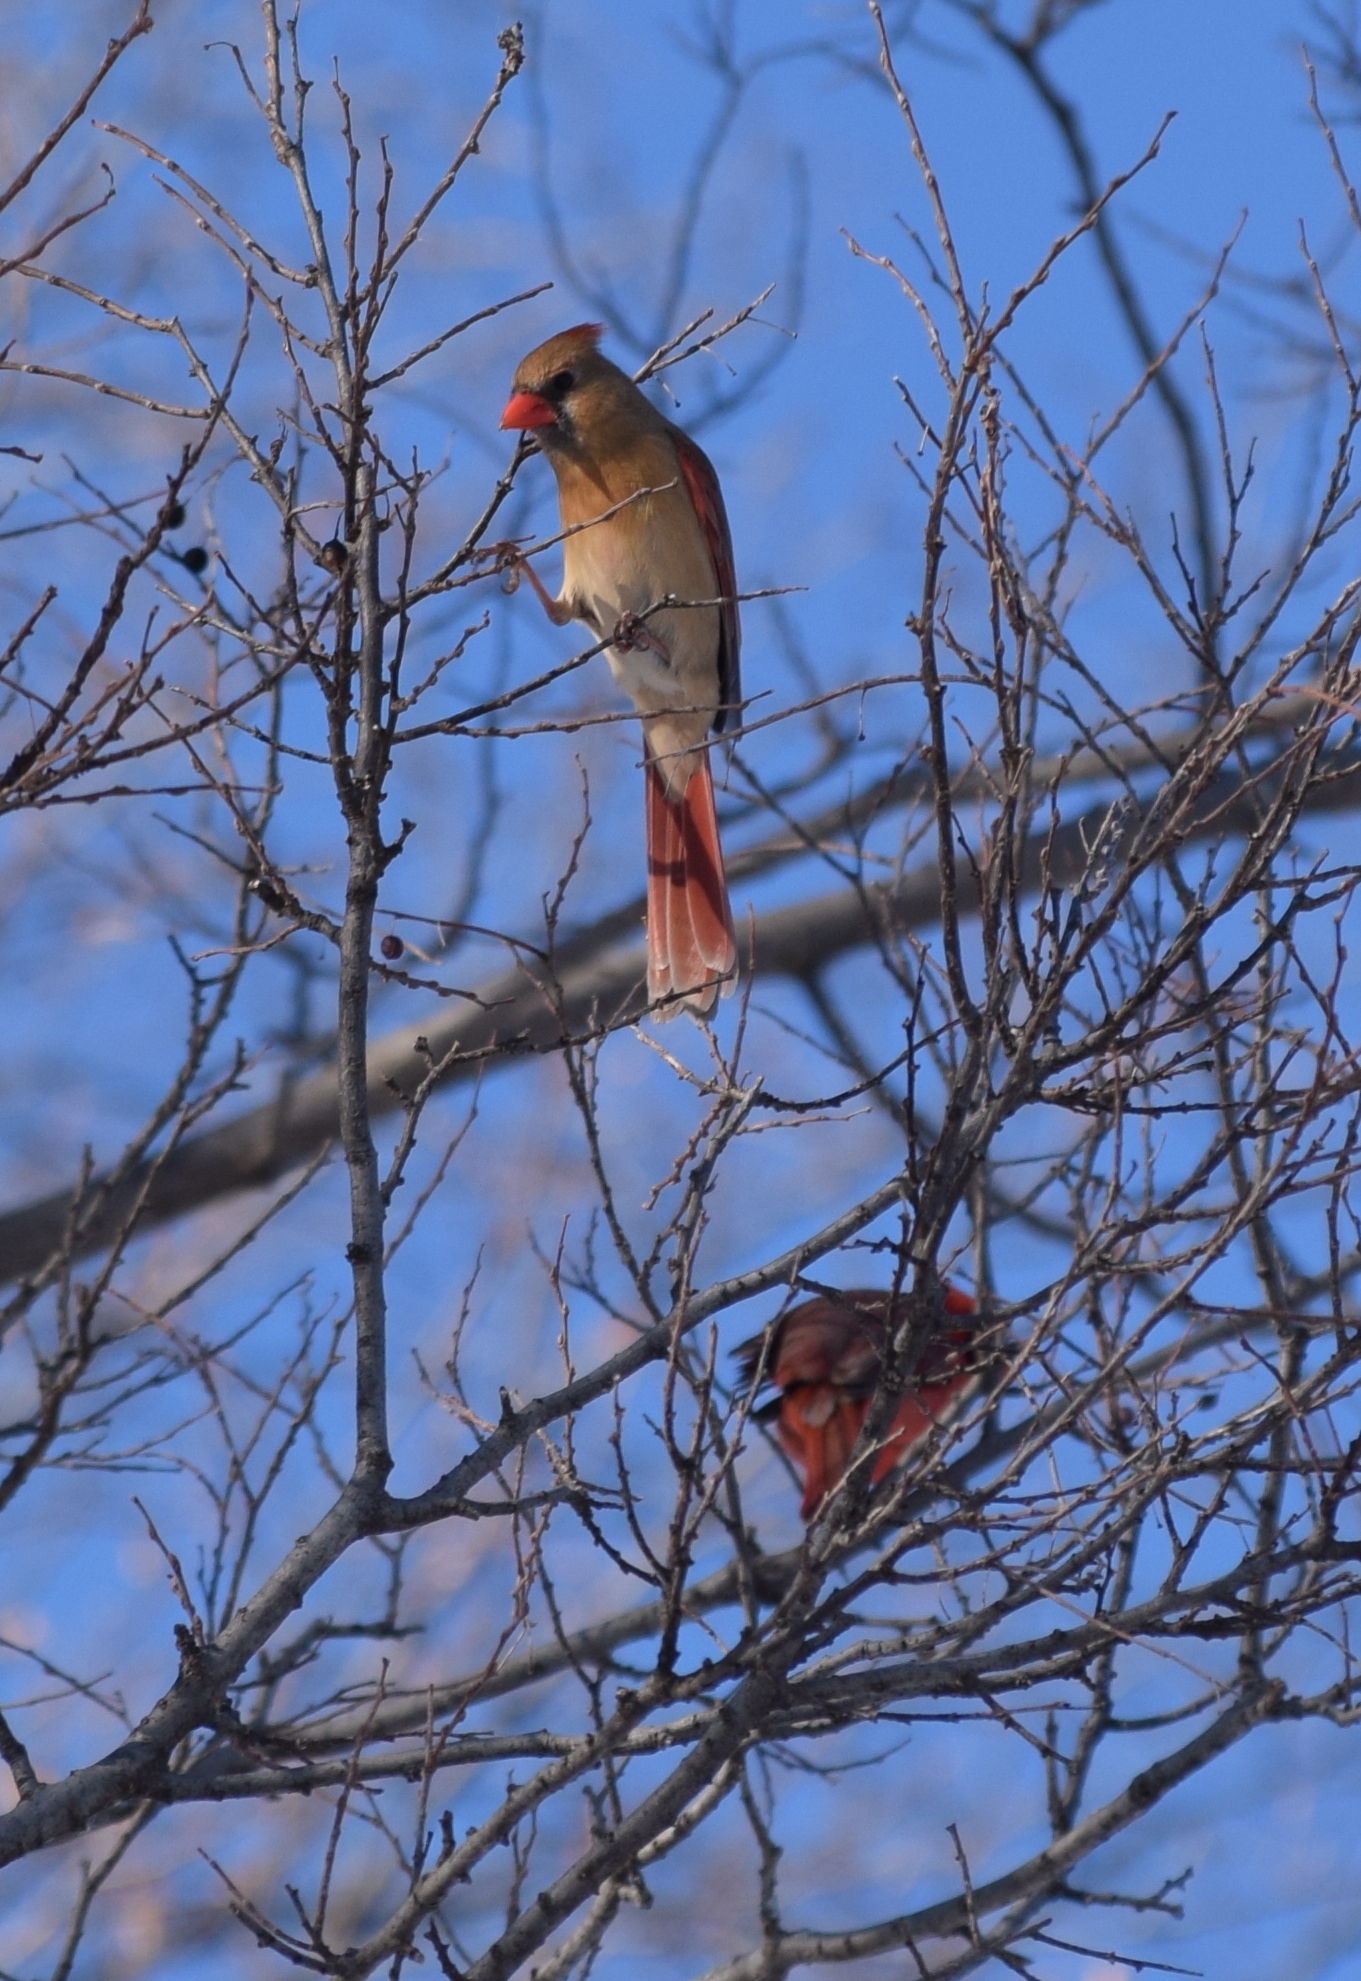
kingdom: Animalia
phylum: Chordata
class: Aves
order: Passeriformes
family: Cardinalidae
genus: Cardinalis
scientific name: Cardinalis cardinalis
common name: Northern cardinal
